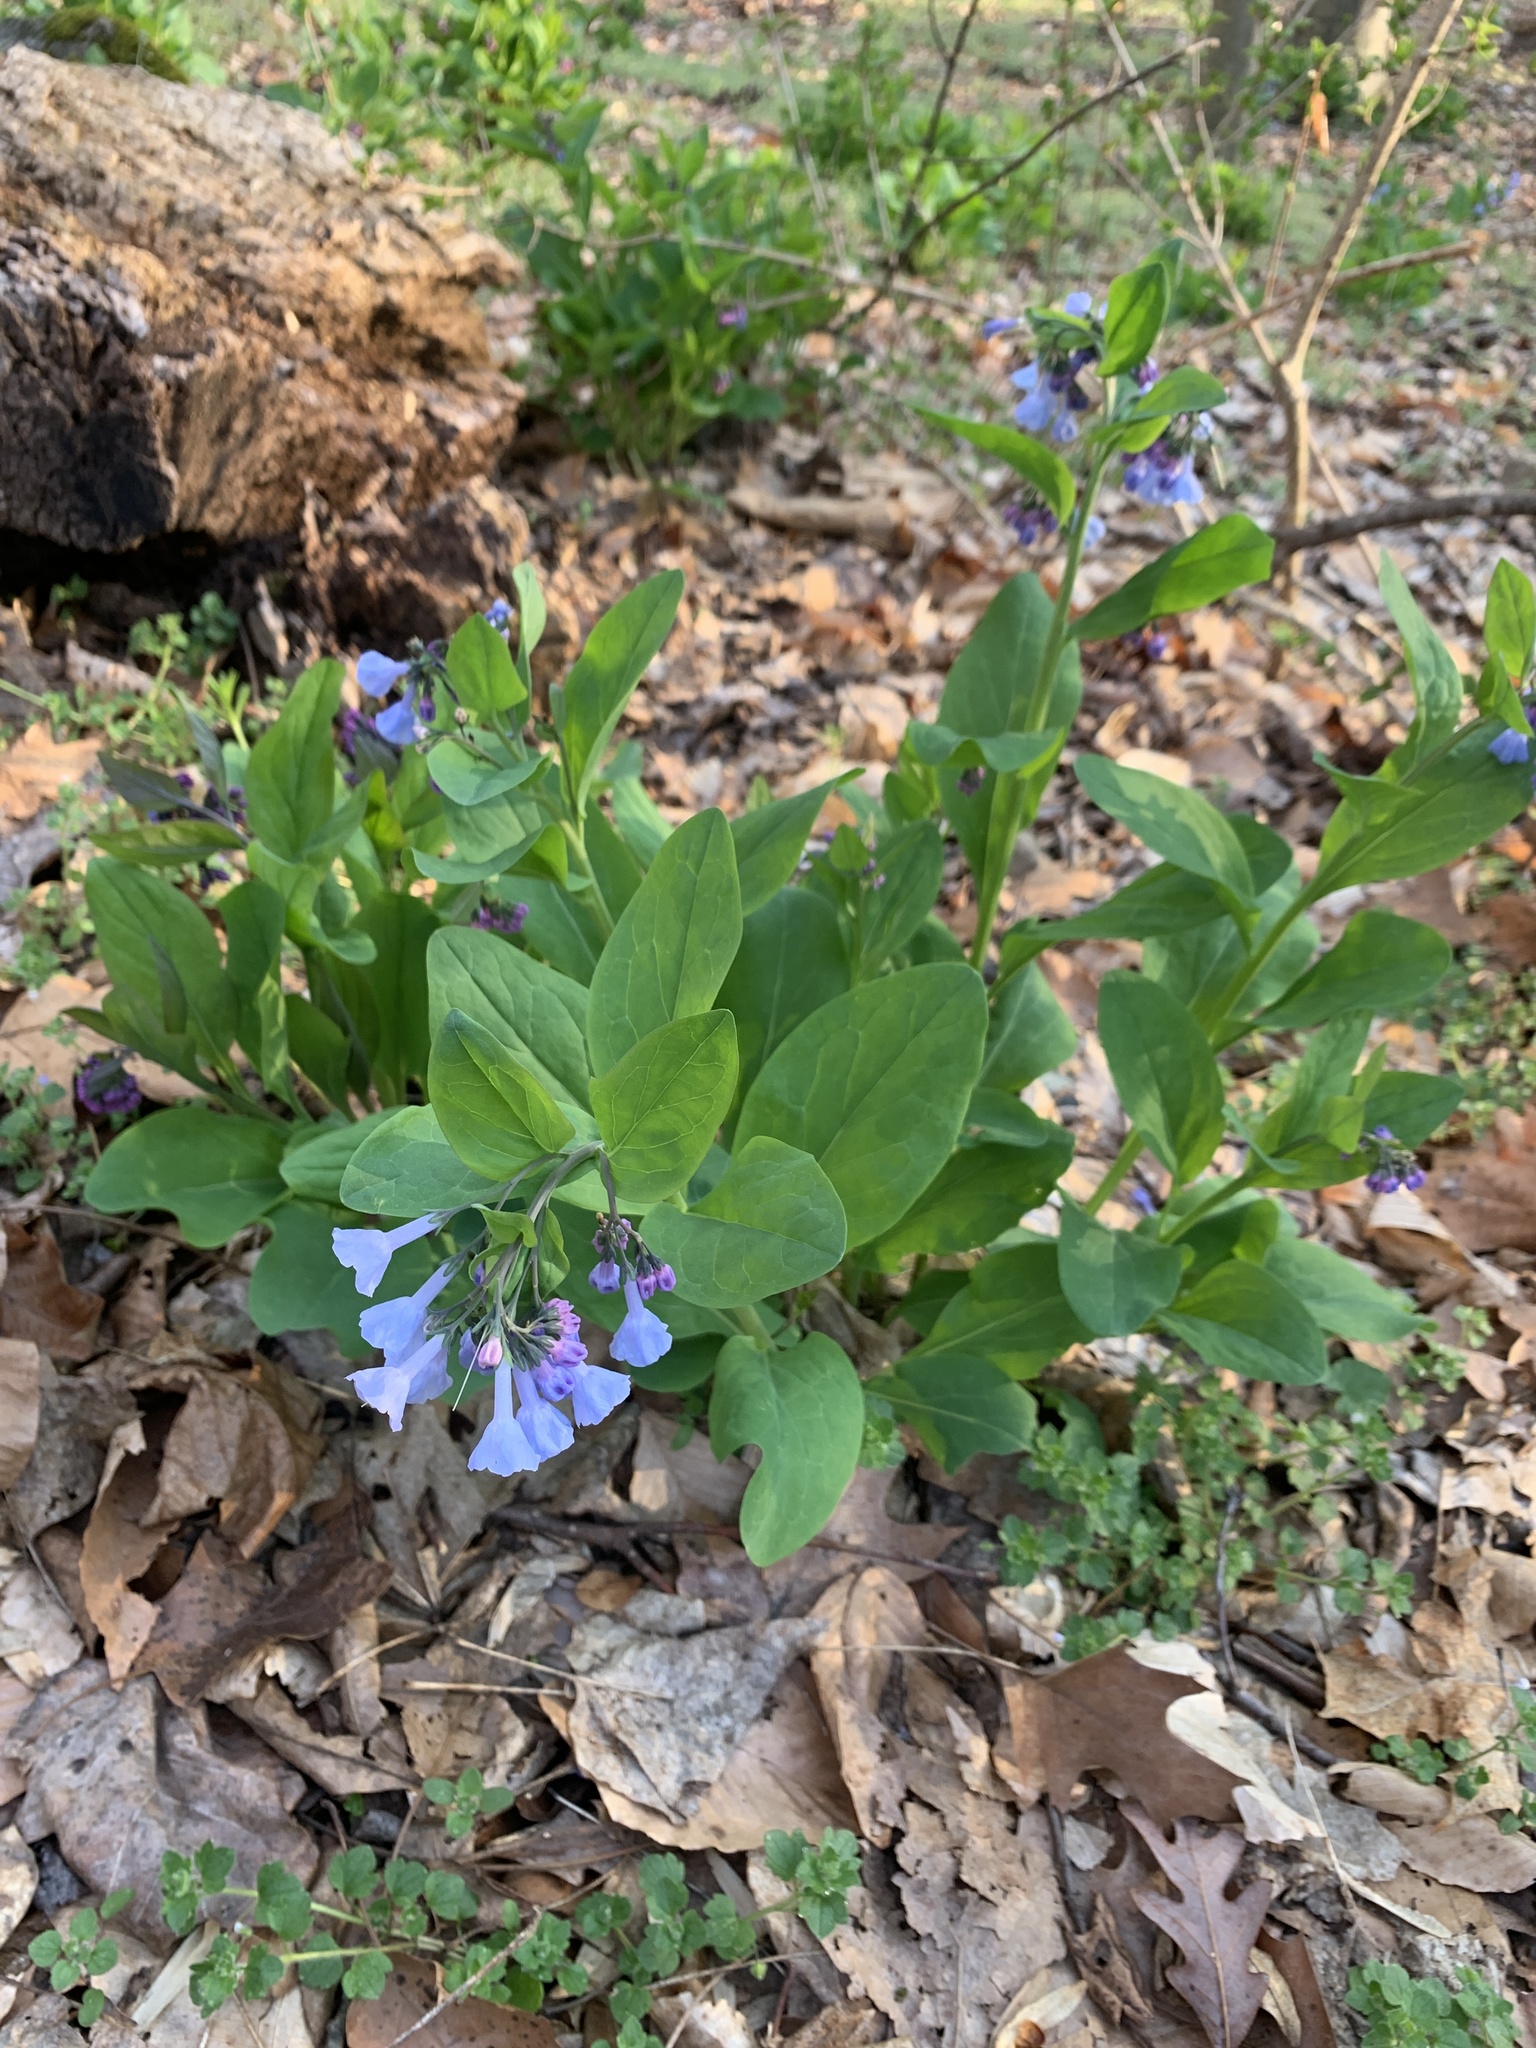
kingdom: Plantae
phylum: Tracheophyta
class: Magnoliopsida
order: Boraginales
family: Boraginaceae
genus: Mertensia
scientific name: Mertensia virginica
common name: Virginia bluebells
